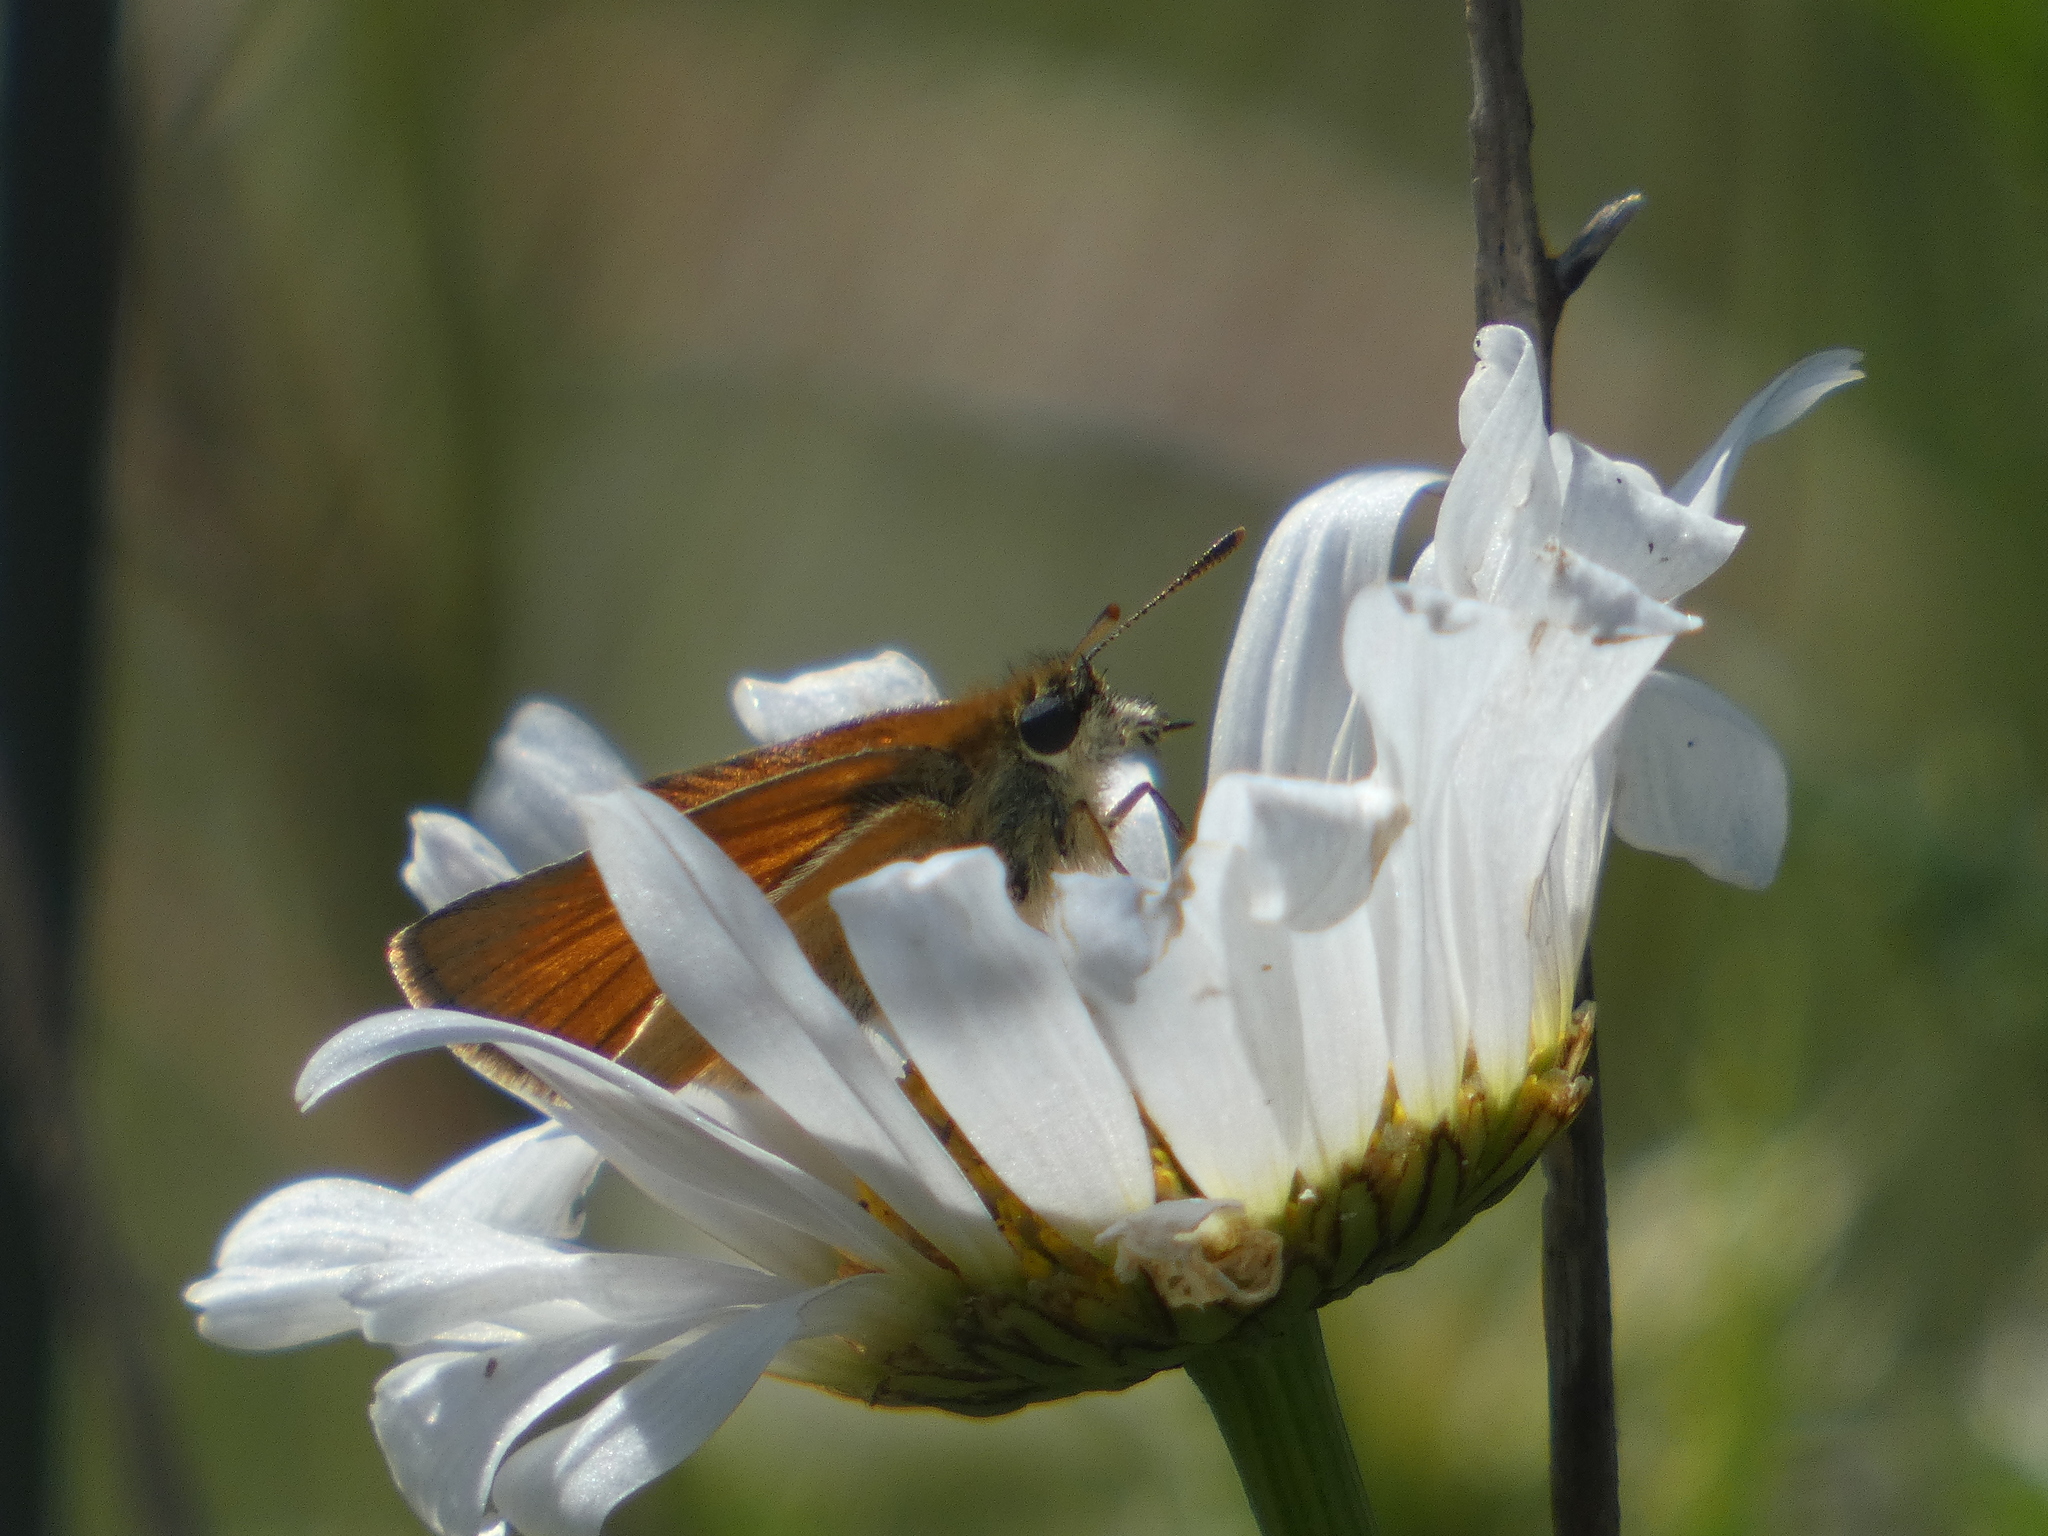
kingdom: Animalia
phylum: Arthropoda
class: Insecta
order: Lepidoptera
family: Hesperiidae
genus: Thymelicus
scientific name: Thymelicus sylvestris
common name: Small skipper
